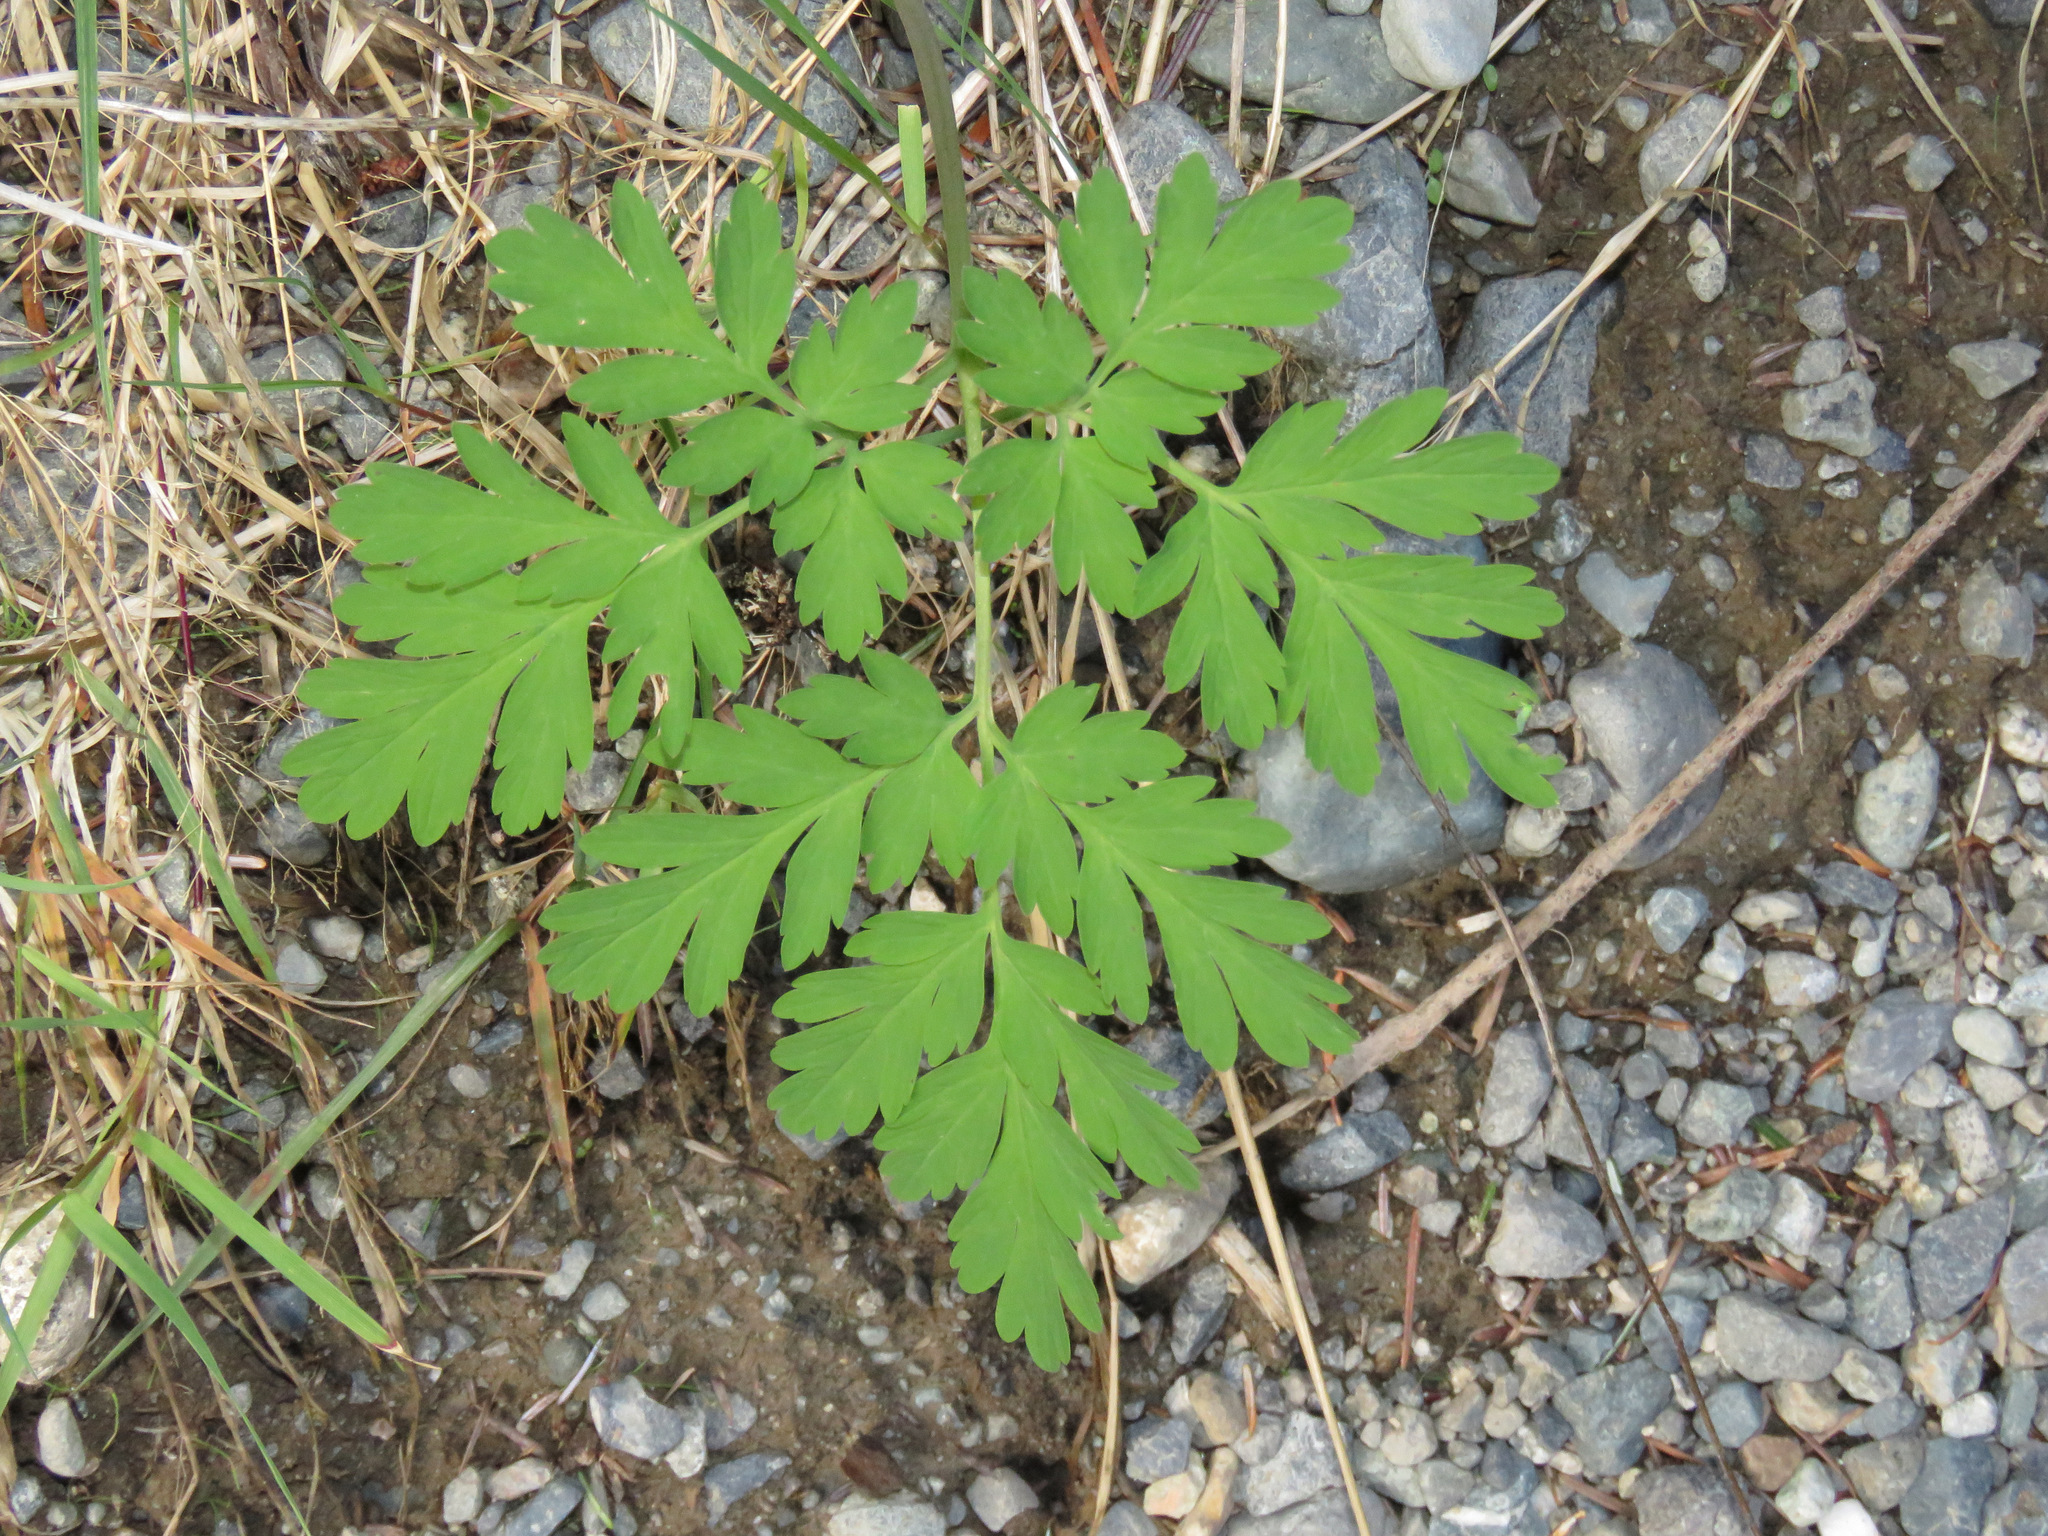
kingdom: Plantae
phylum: Tracheophyta
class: Magnoliopsida
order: Ranunculales
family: Papaveraceae
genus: Dicentra
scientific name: Dicentra formosa
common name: Bleeding-heart
